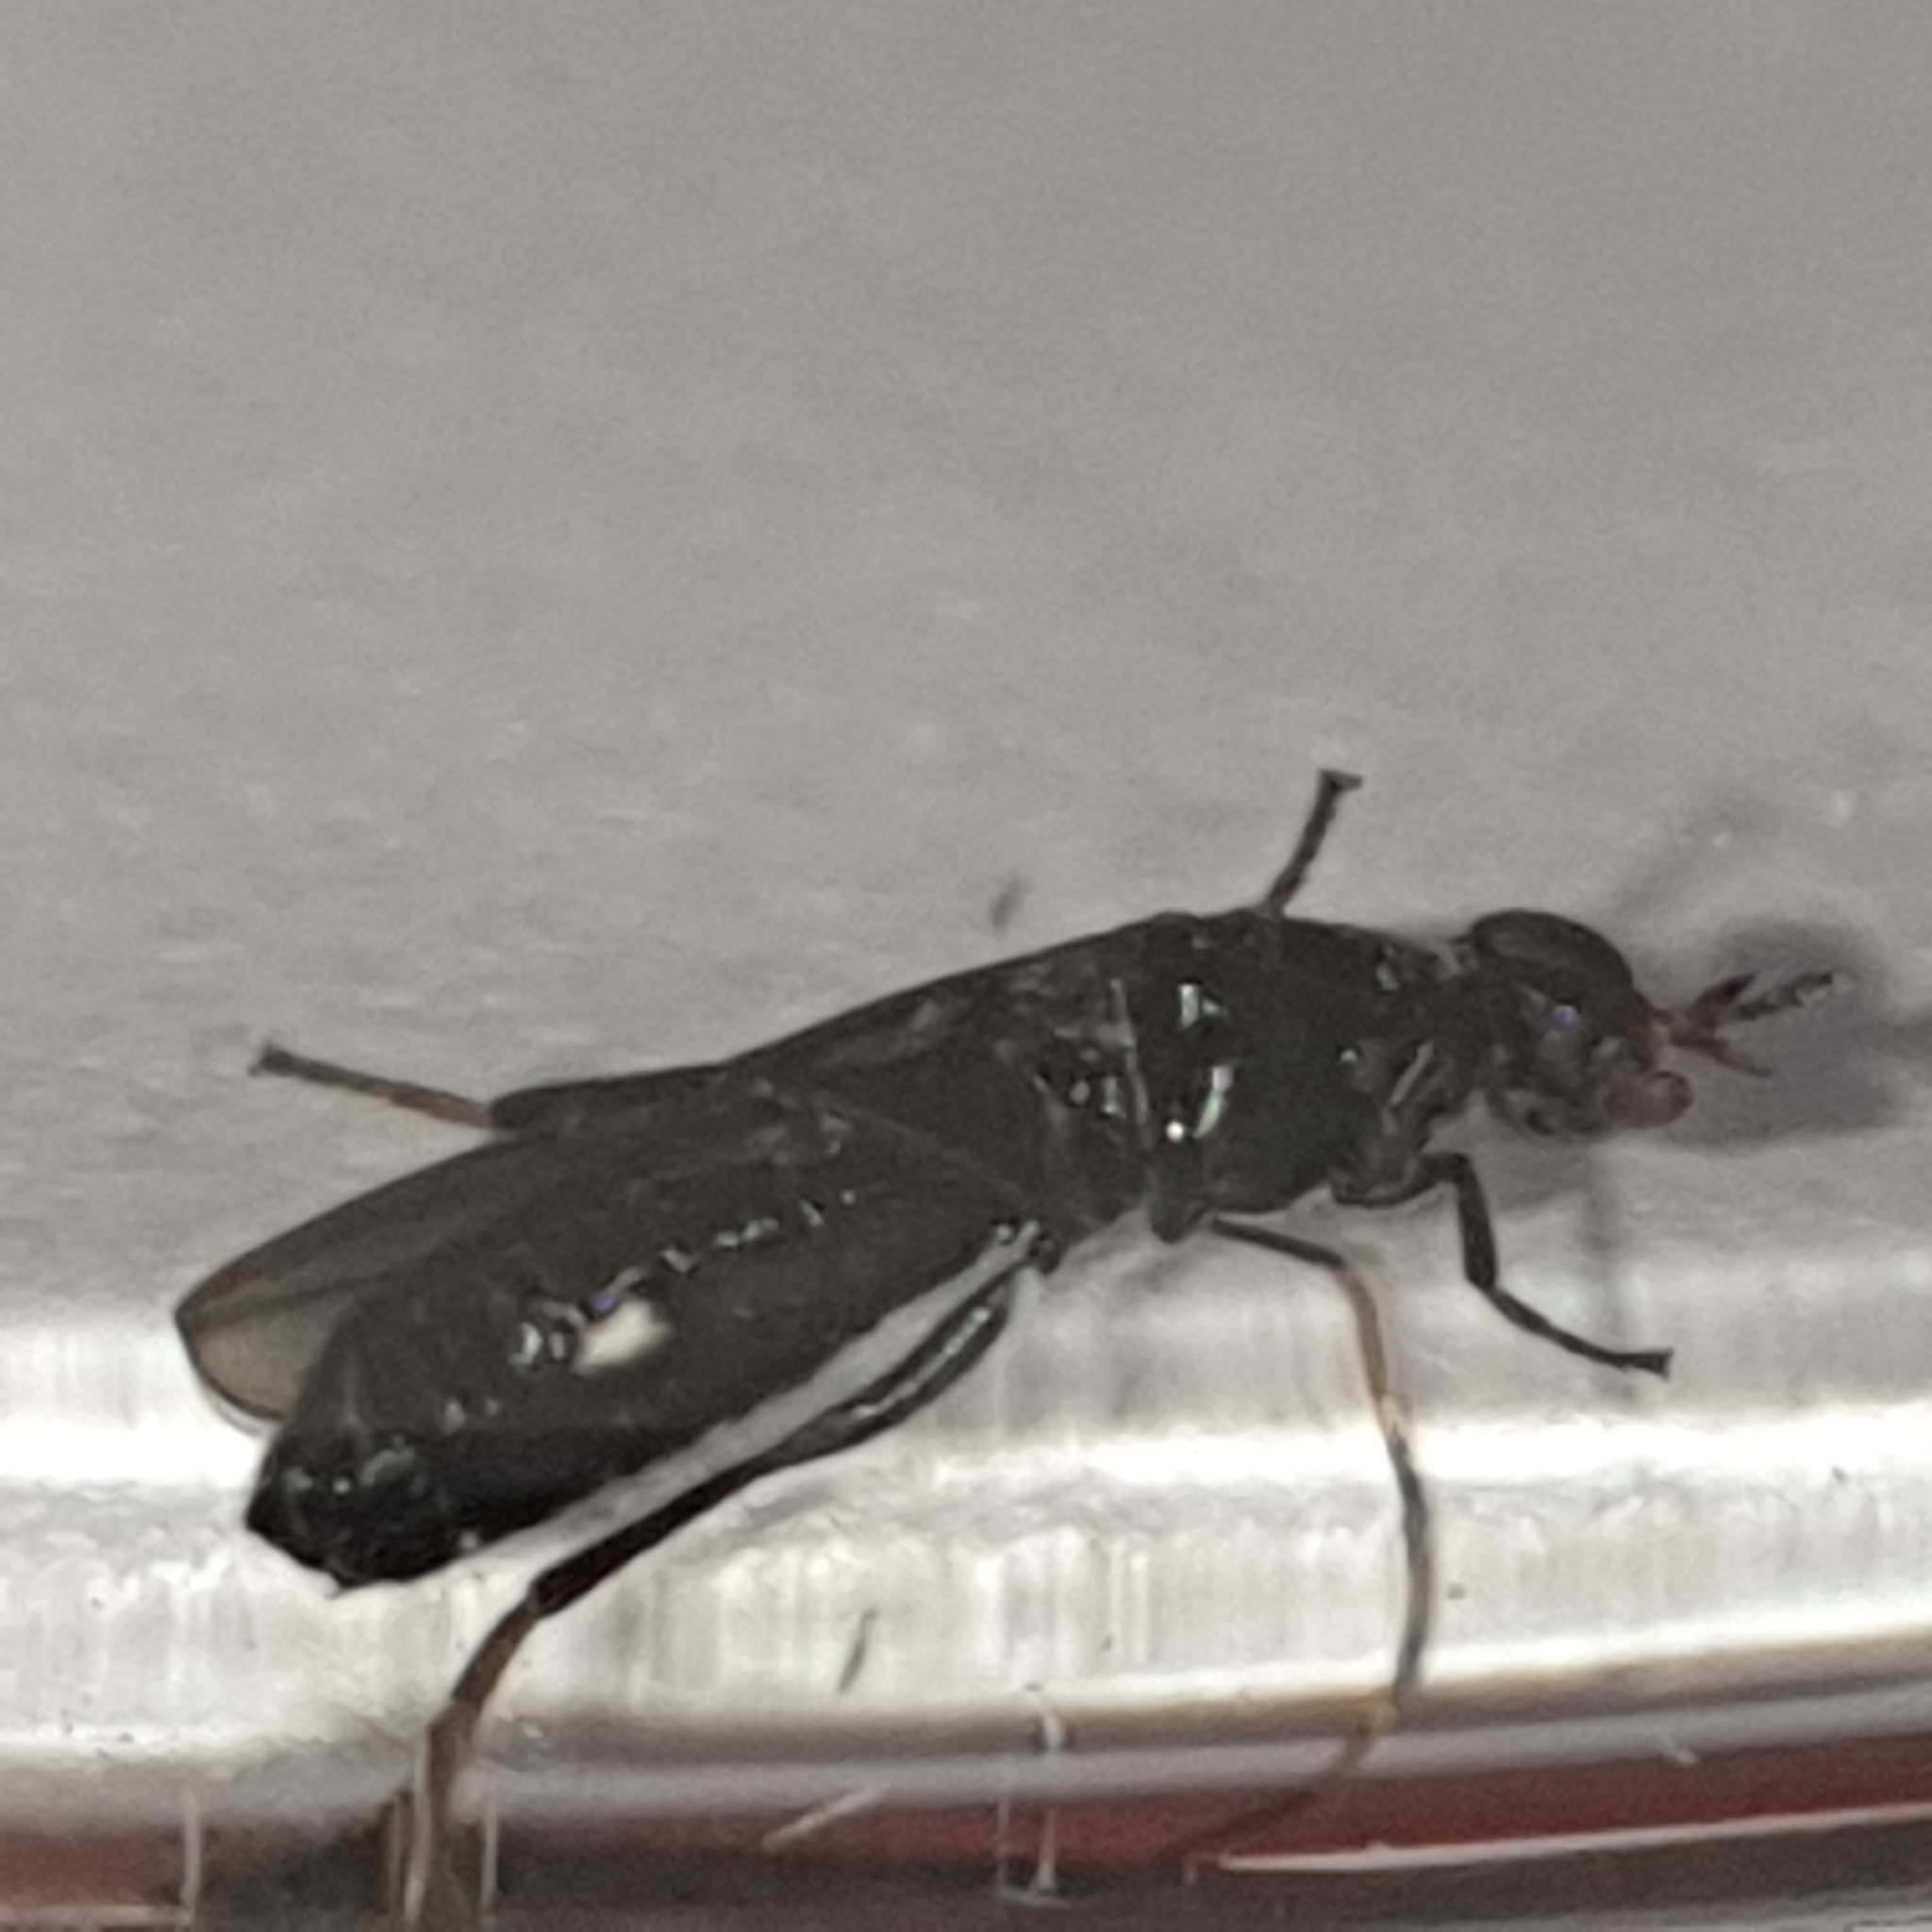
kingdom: Animalia
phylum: Arthropoda
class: Insecta
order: Diptera
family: Scenopinidae
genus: Scenopinus
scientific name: Scenopinus niger
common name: Forest windowfly
